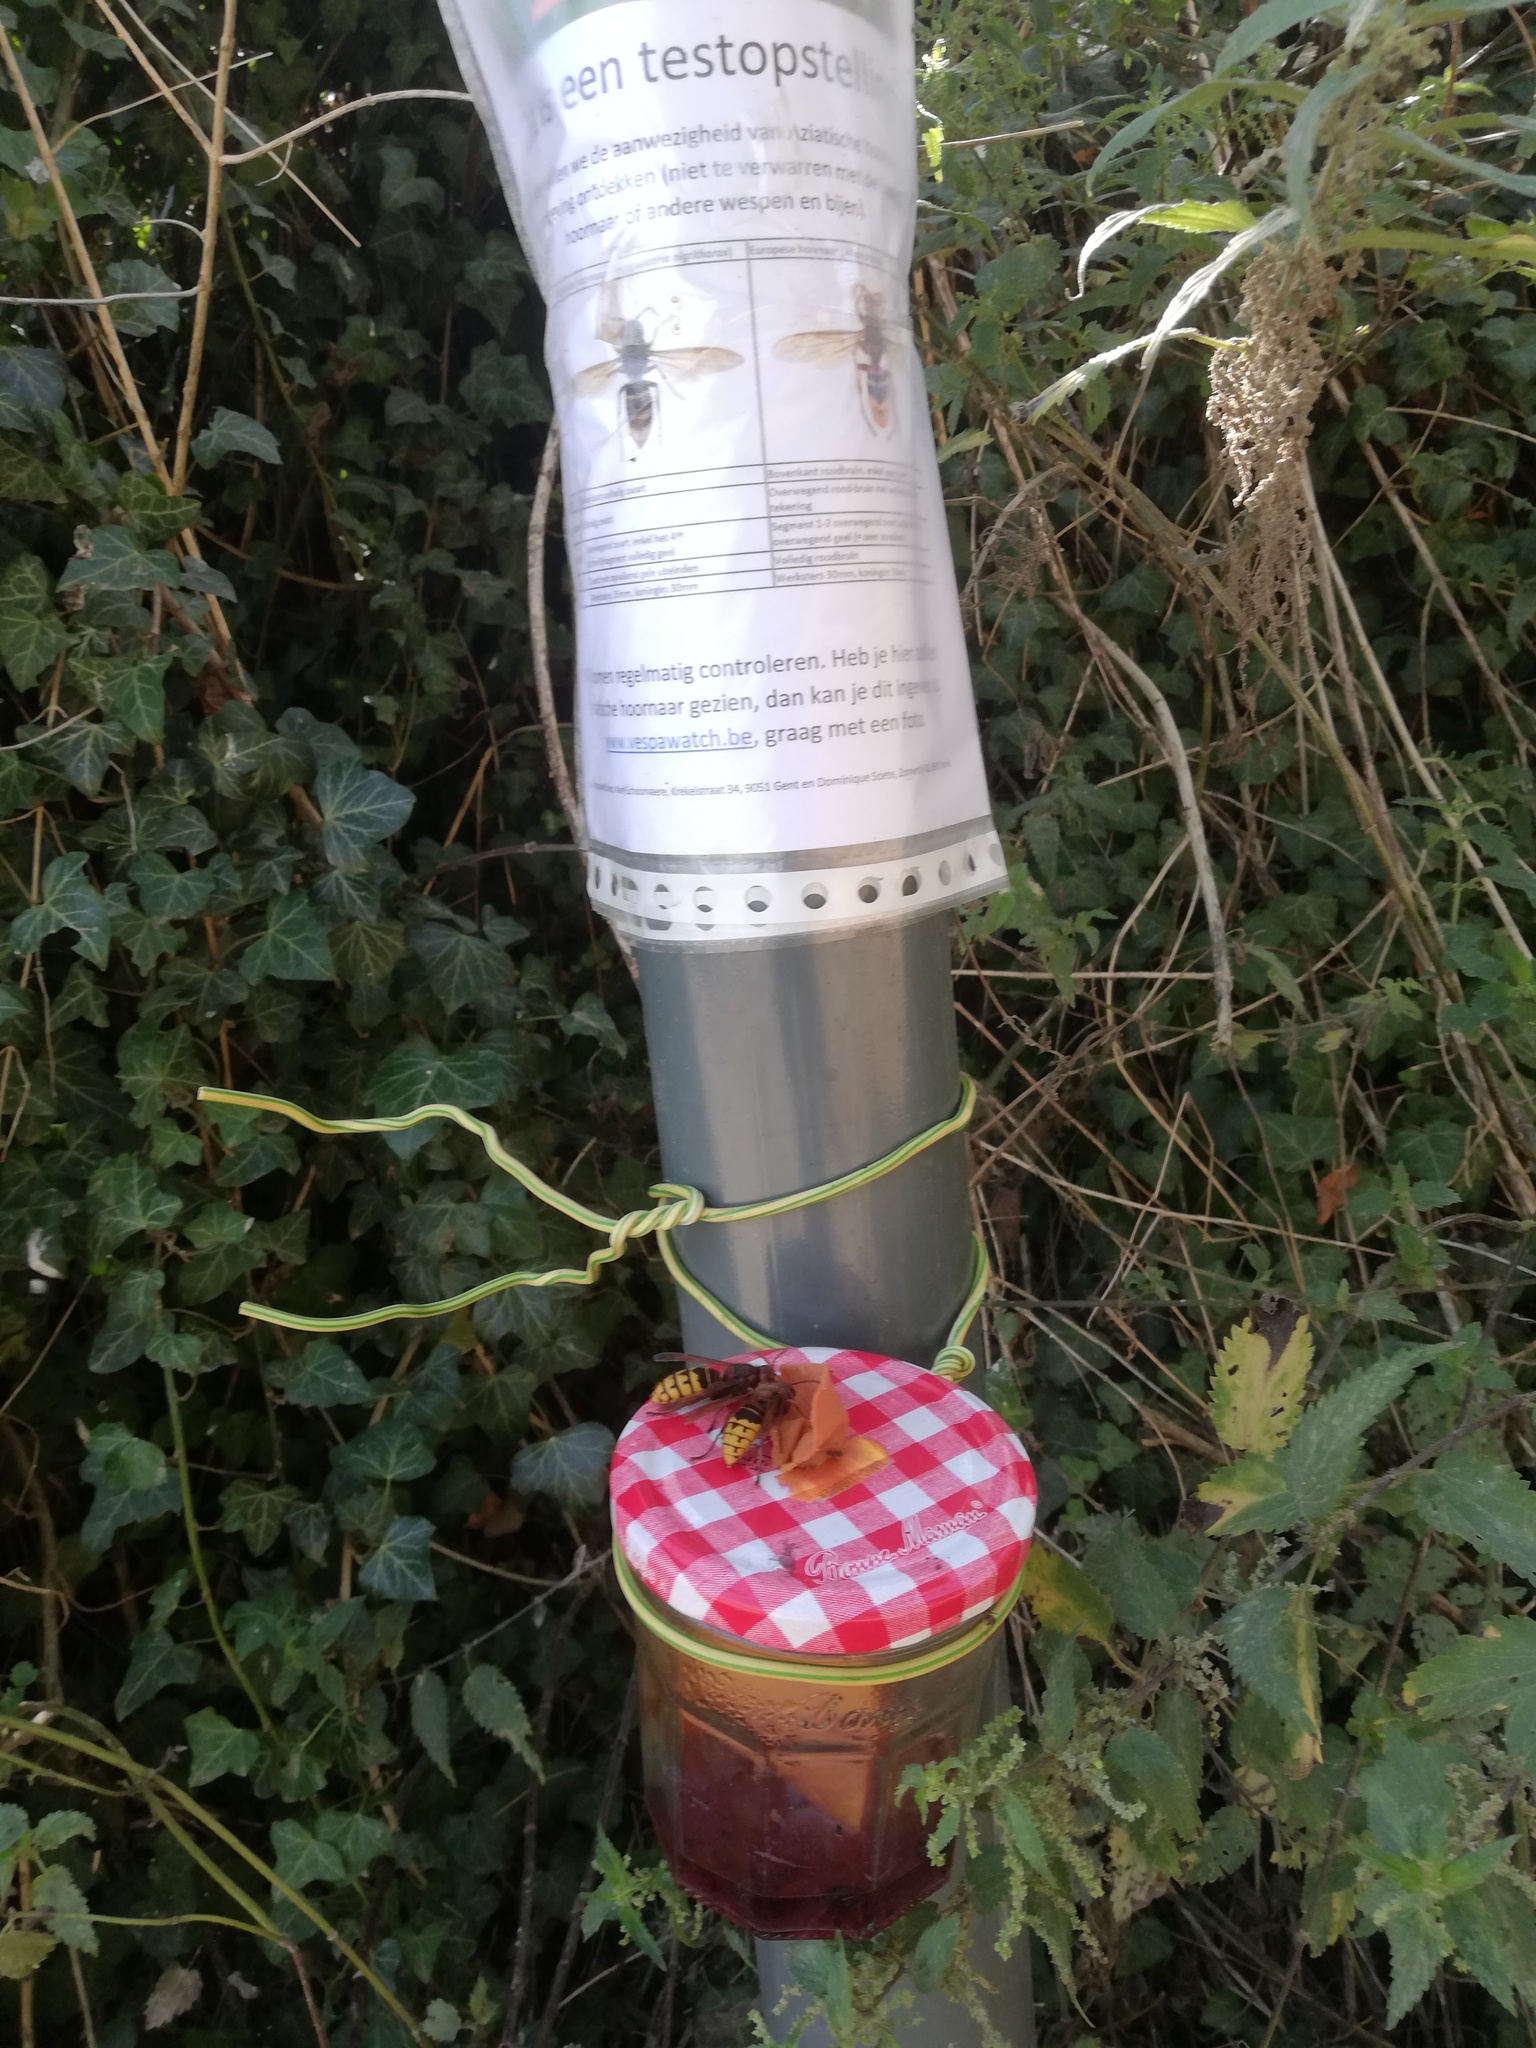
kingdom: Animalia
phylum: Arthropoda
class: Insecta
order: Hymenoptera
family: Vespidae
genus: Vespa
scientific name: Vespa crabro
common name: Hornet
